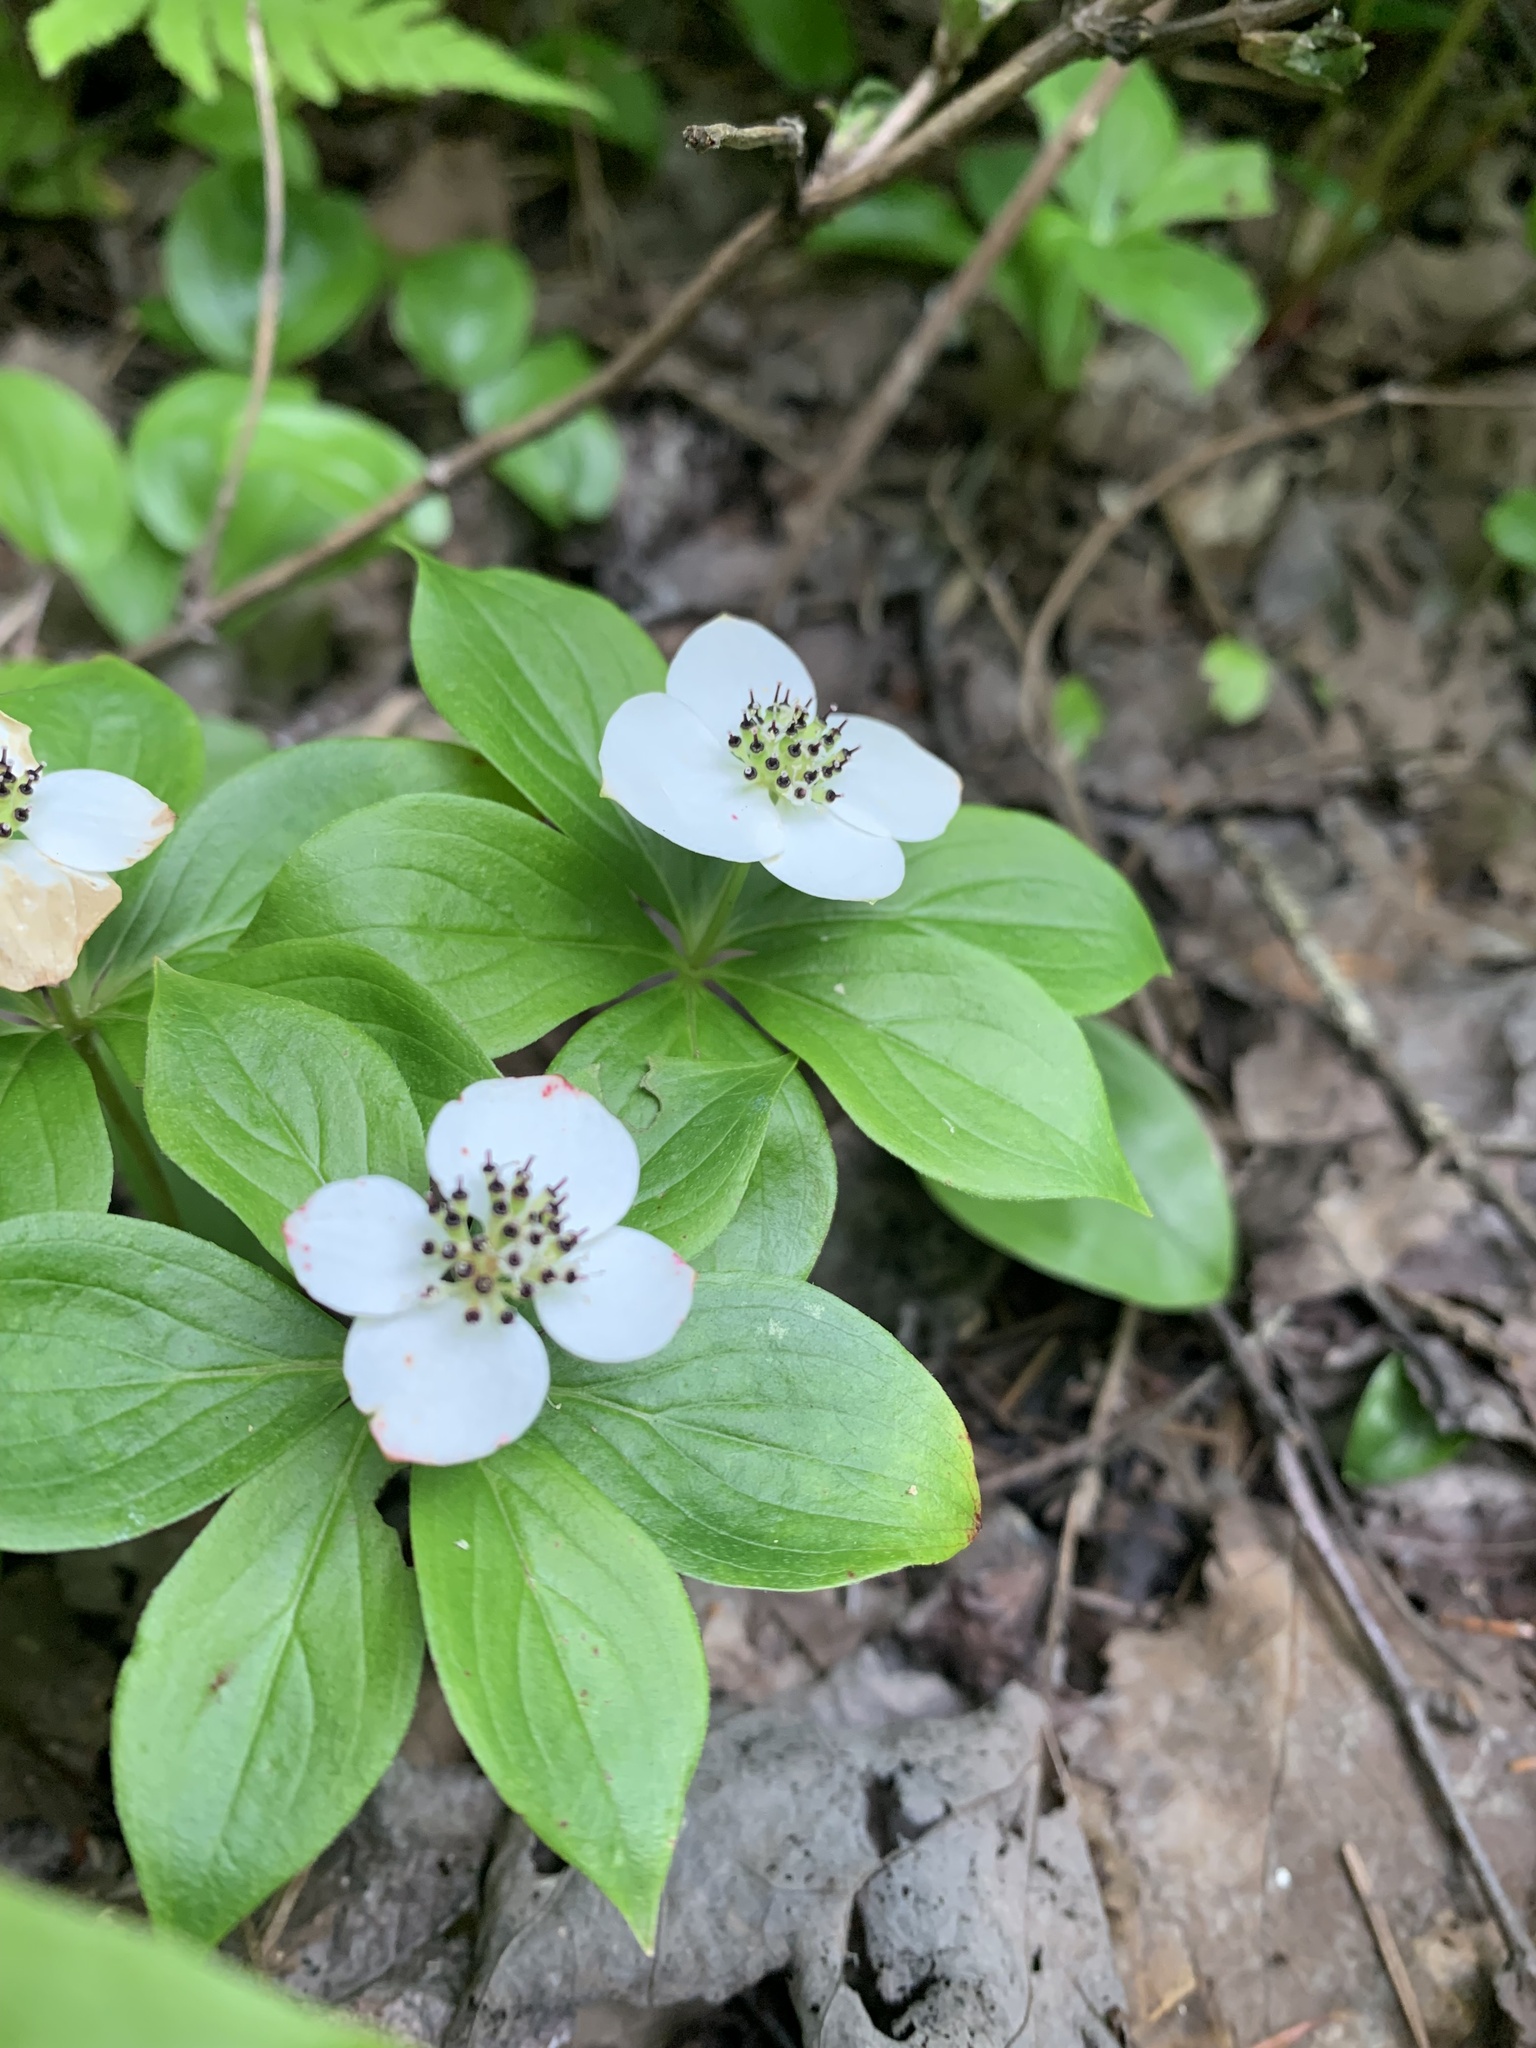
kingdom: Plantae
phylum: Tracheophyta
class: Magnoliopsida
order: Cornales
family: Cornaceae
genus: Cornus
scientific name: Cornus canadensis
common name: Creeping dogwood
